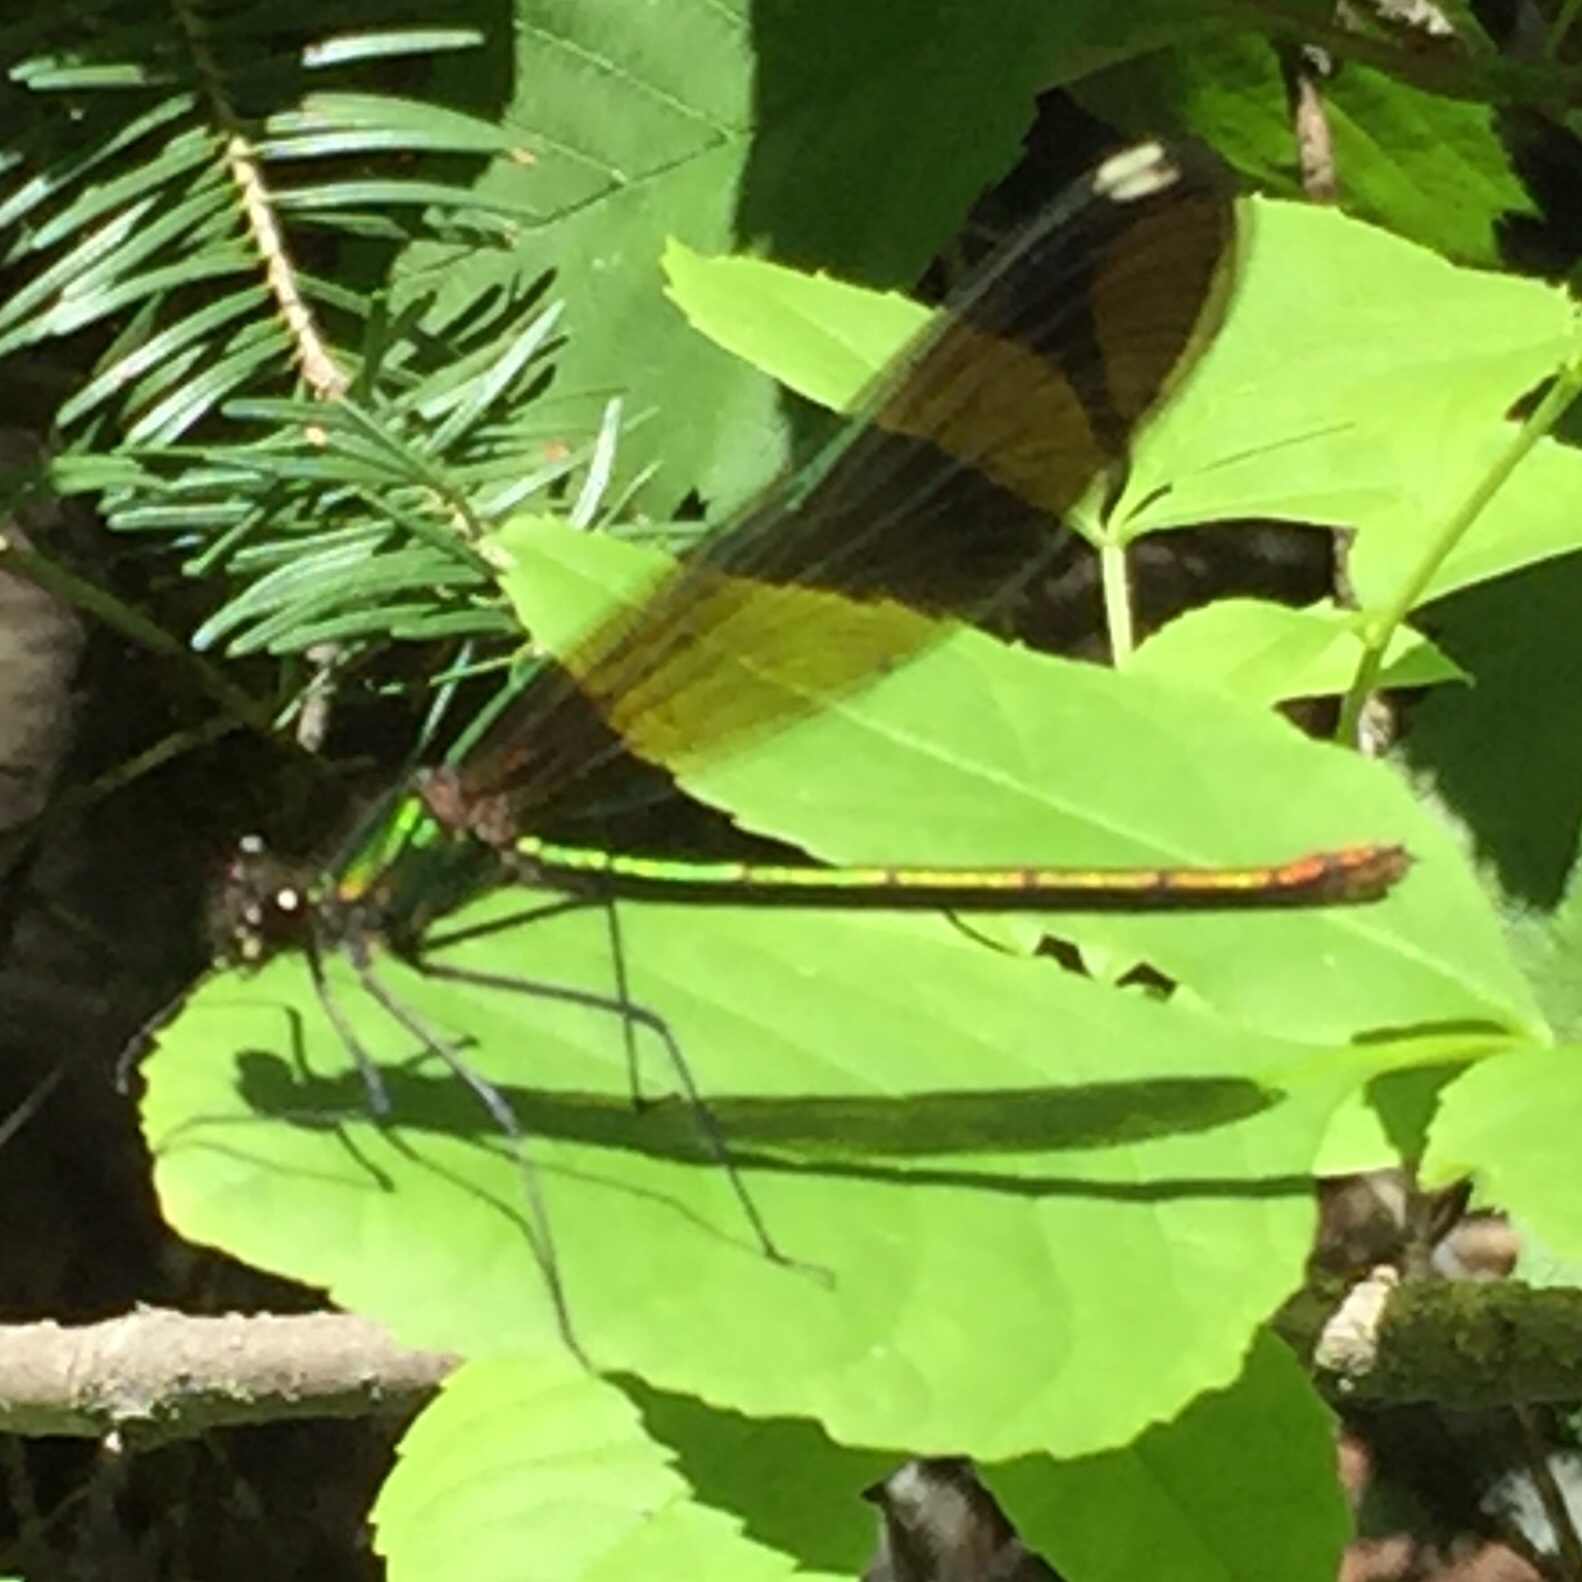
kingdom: Animalia
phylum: Arthropoda
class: Insecta
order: Odonata
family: Calopterygidae
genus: Calopteryx
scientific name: Calopteryx aequabilis
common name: River jewelwing
